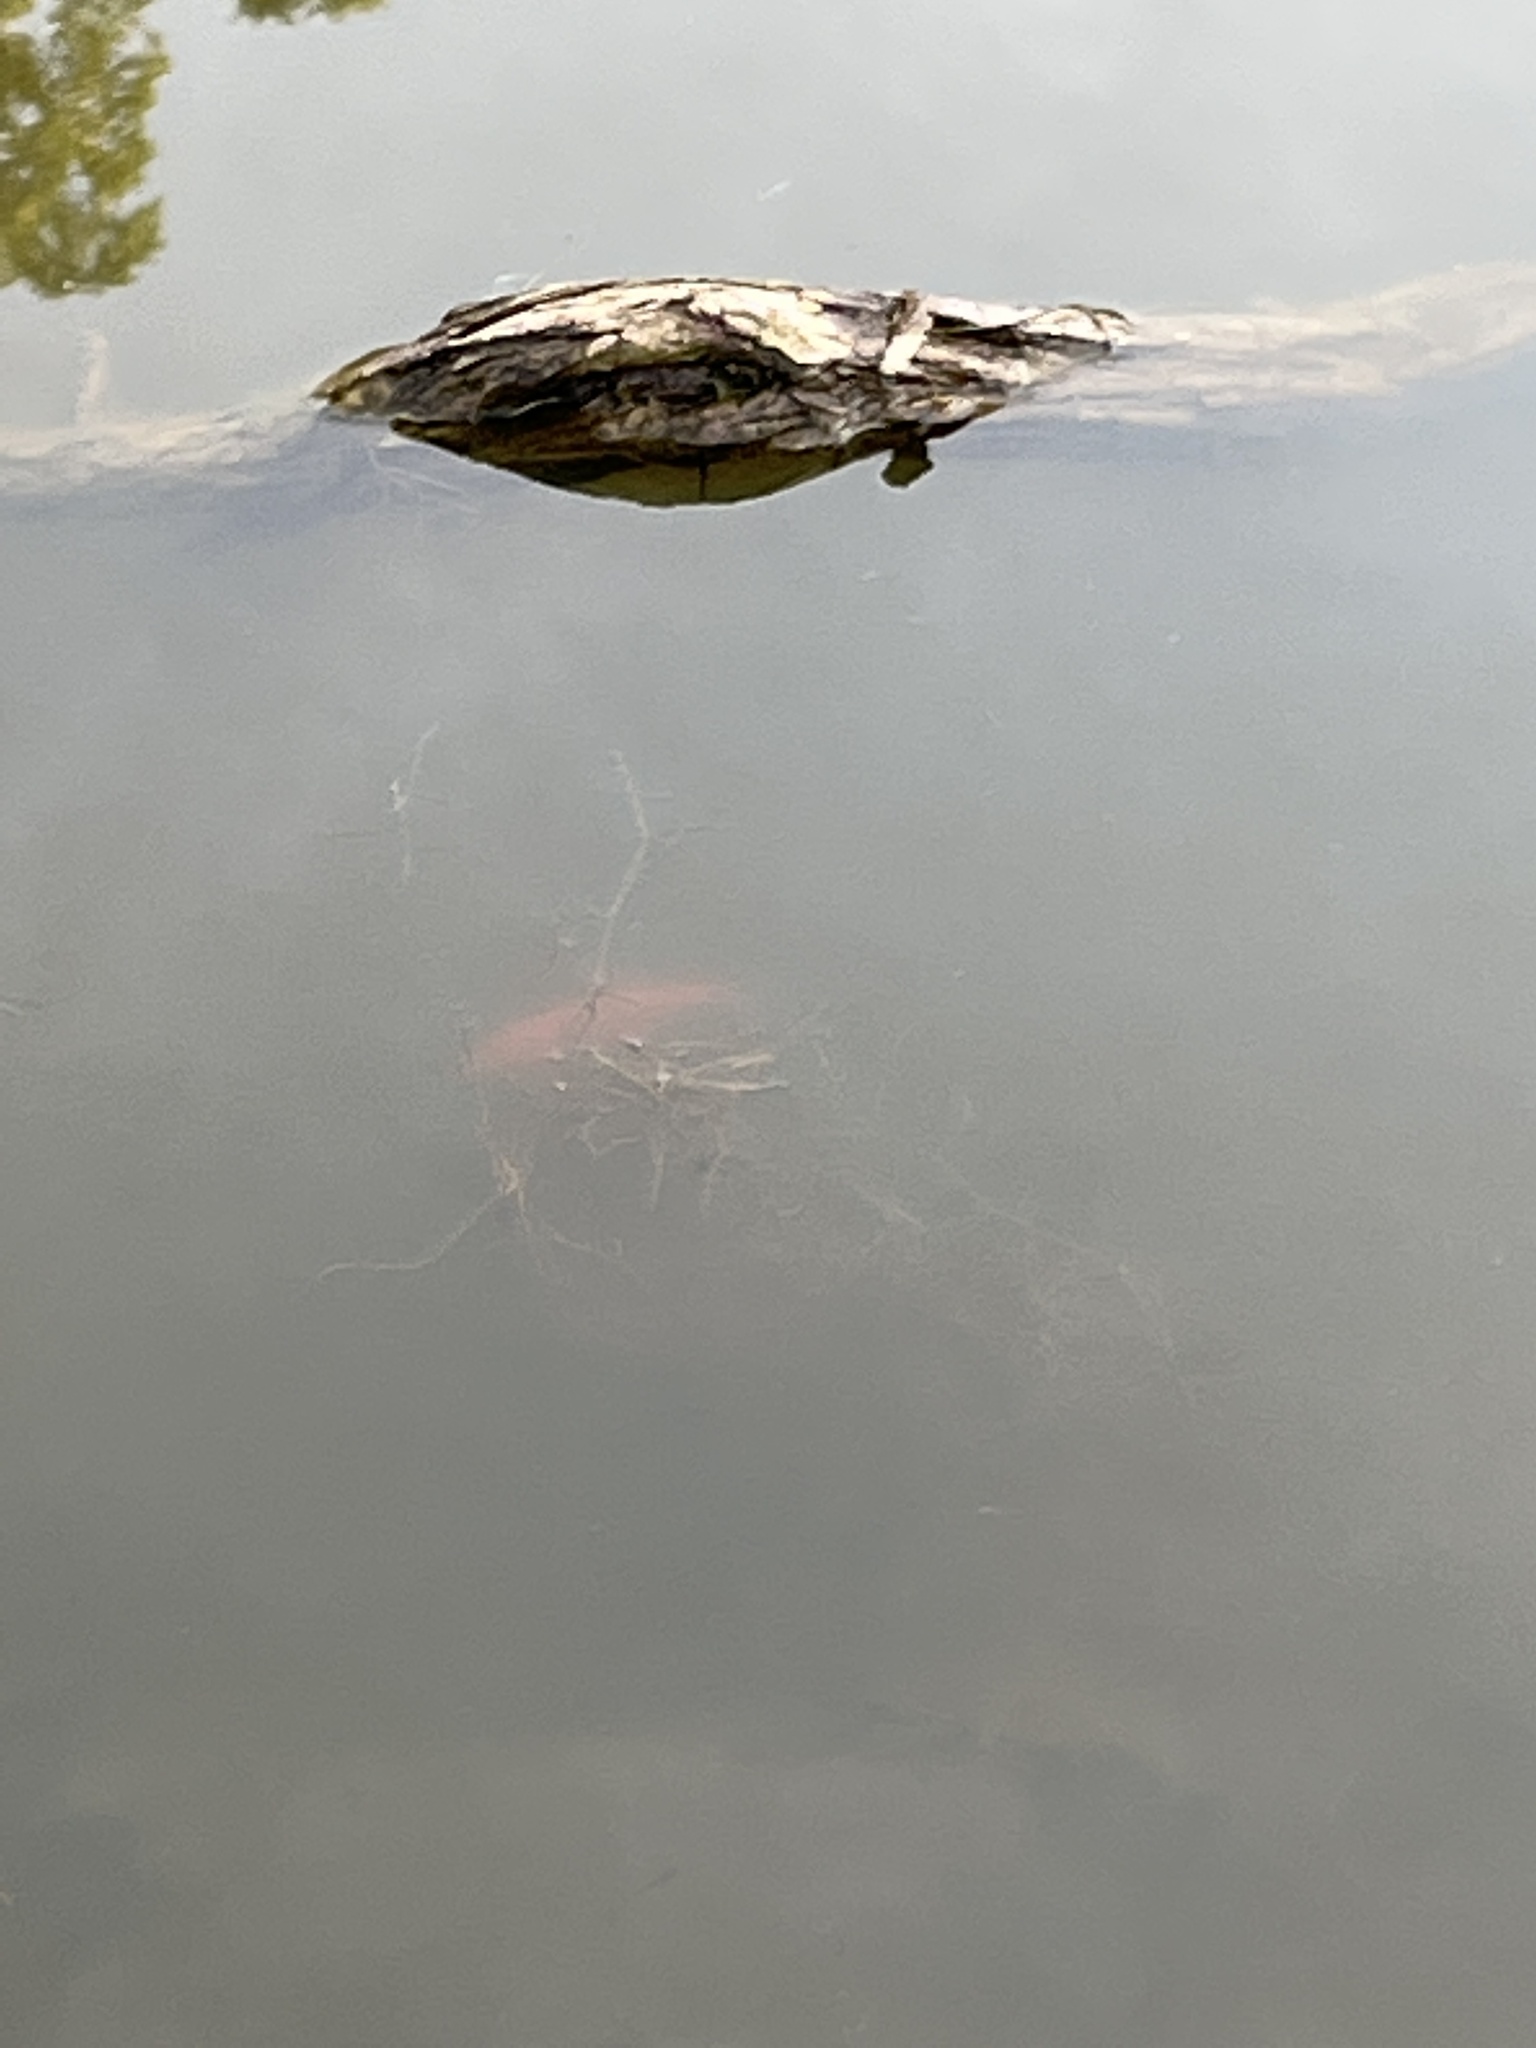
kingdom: Animalia
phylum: Chordata
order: Cypriniformes
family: Cyprinidae
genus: Carassius
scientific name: Carassius auratus
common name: Goldfish
